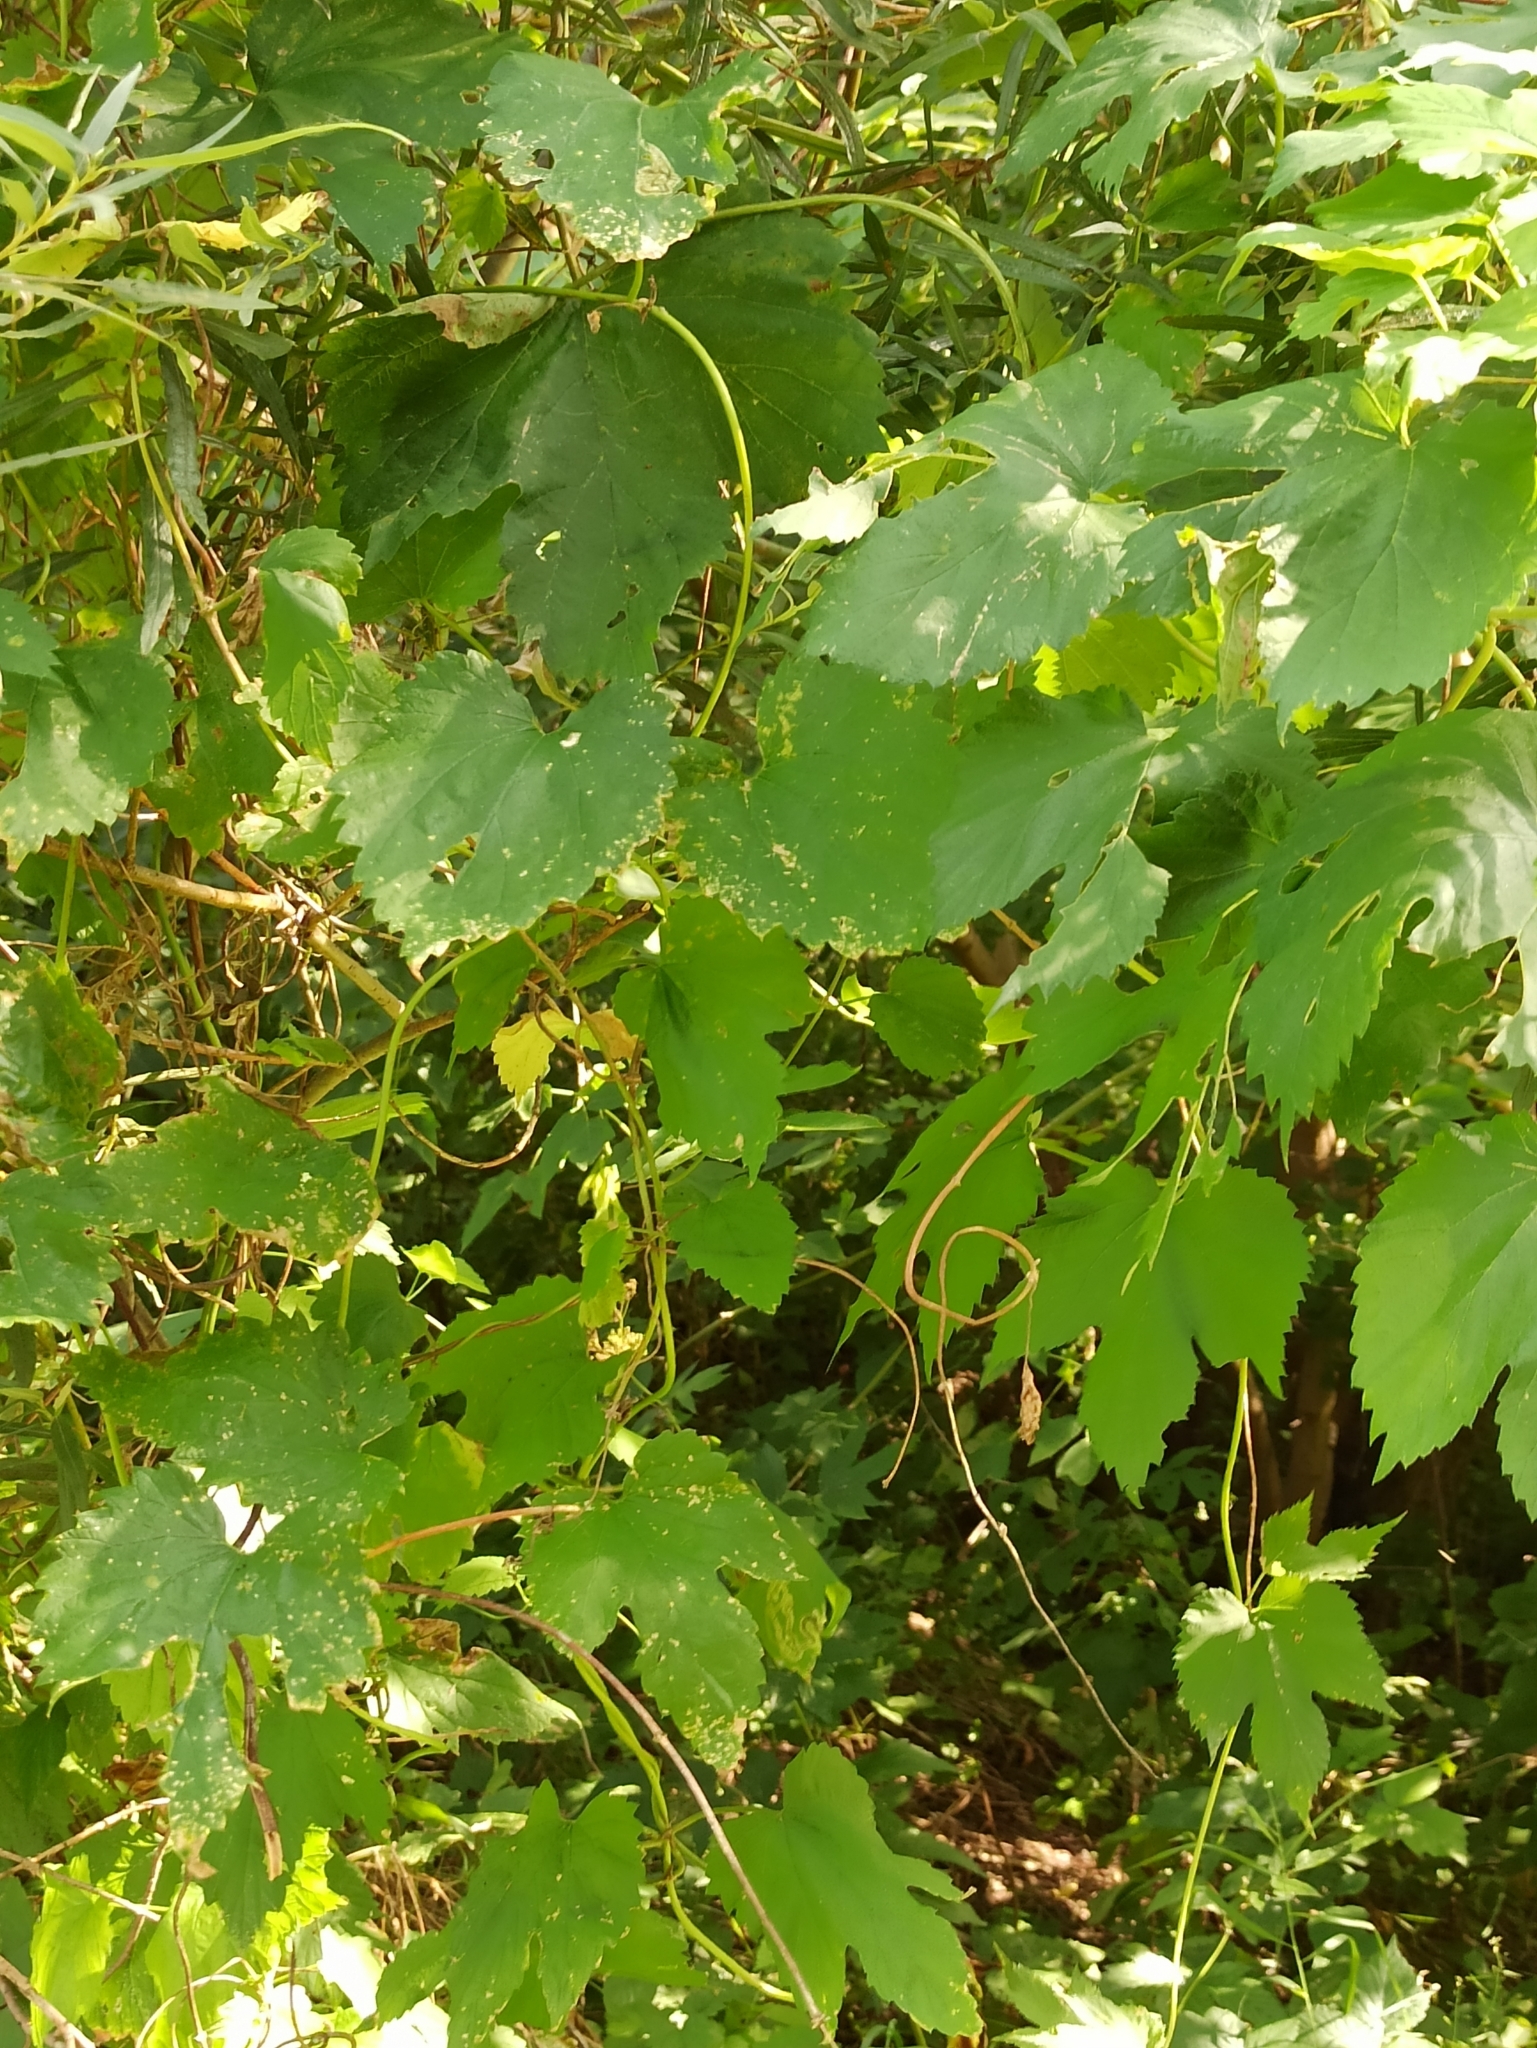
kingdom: Plantae
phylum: Tracheophyta
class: Magnoliopsida
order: Rosales
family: Cannabaceae
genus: Humulus
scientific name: Humulus lupulus
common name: Hop
